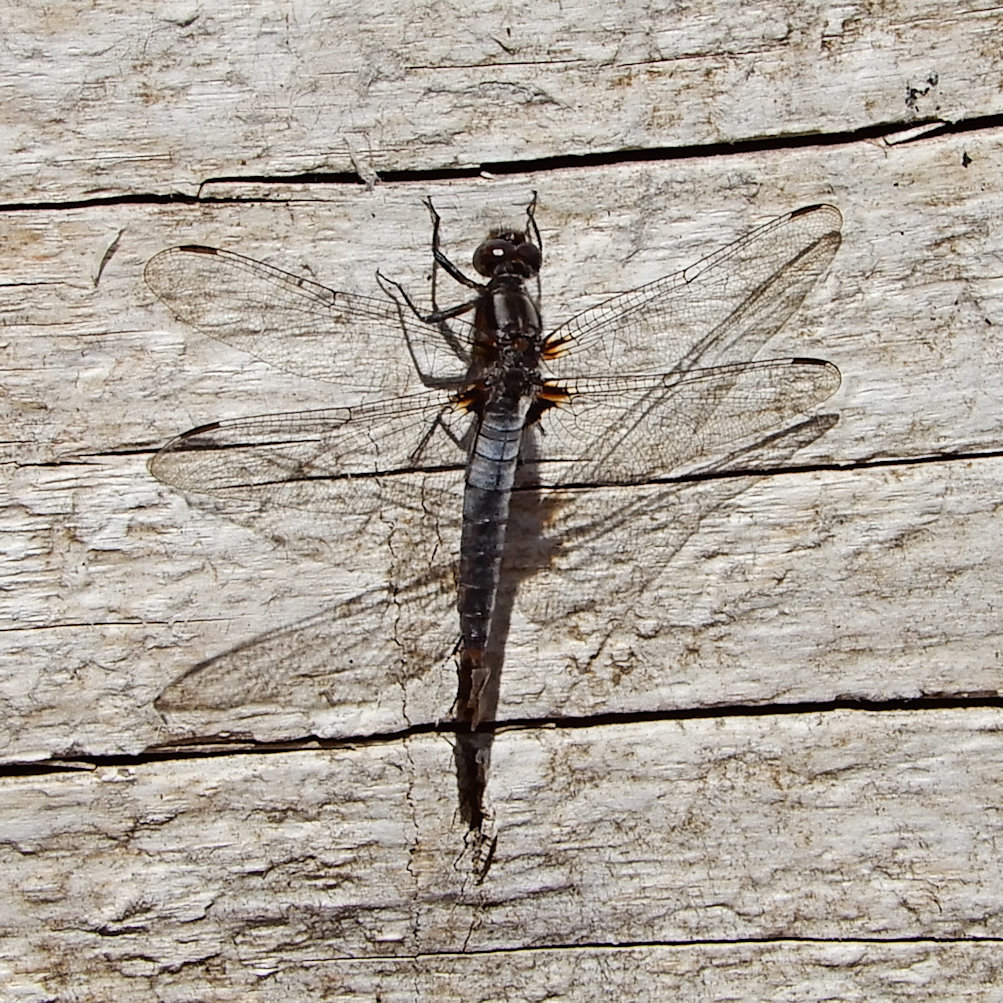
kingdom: Animalia
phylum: Arthropoda
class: Insecta
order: Odonata
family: Libellulidae
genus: Ladona
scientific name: Ladona julia
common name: Chalk-fronted corporal
